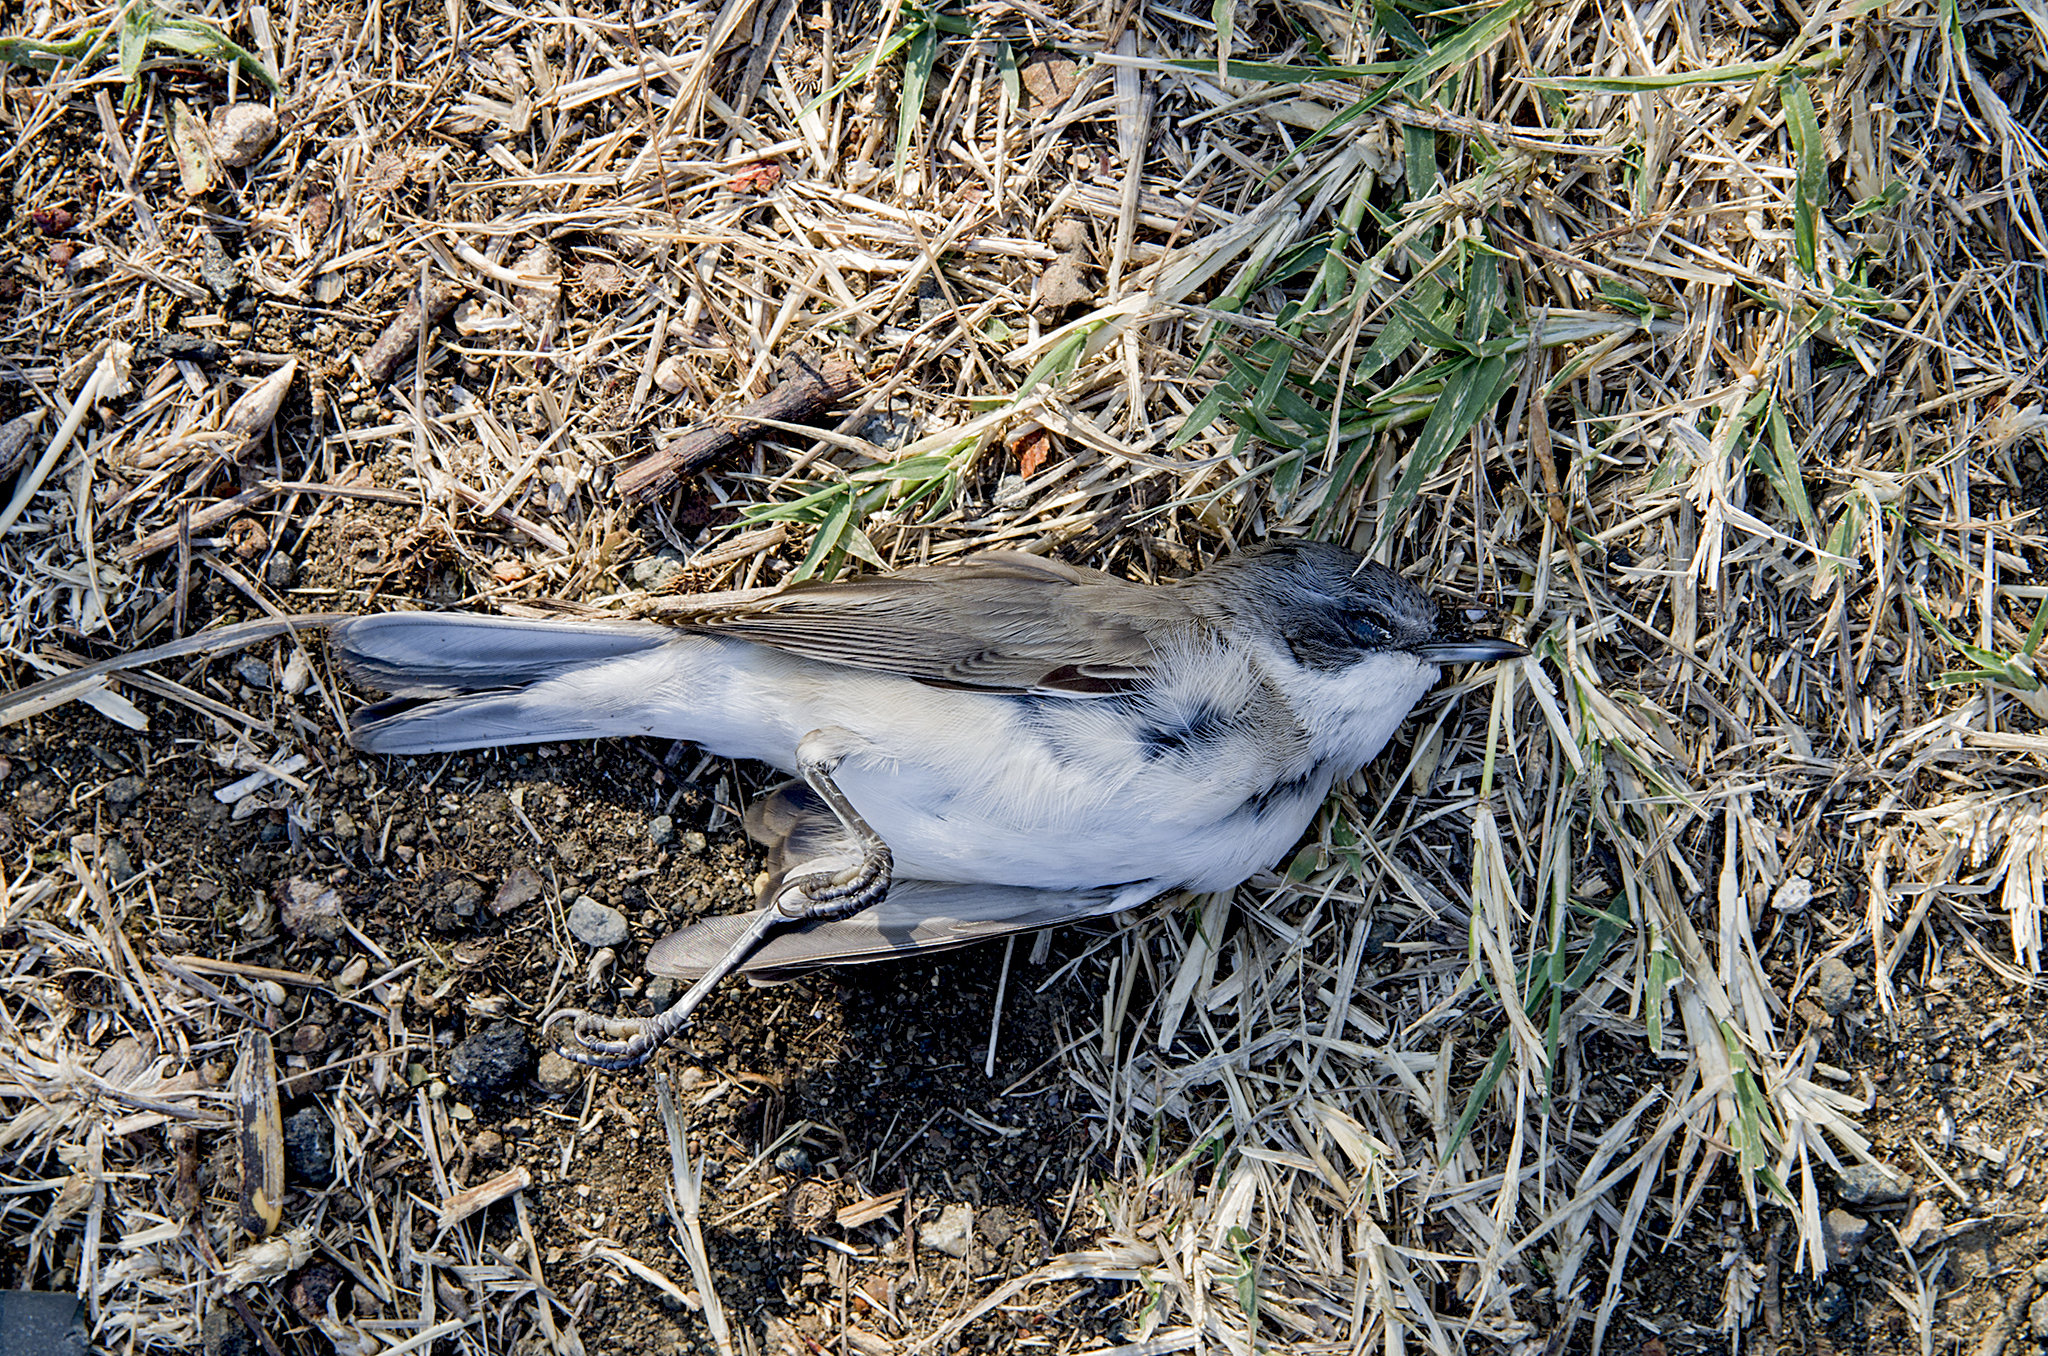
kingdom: Animalia
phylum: Chordata
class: Aves
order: Passeriformes
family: Sylviidae
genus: Sylvia
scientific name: Sylvia curruca
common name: Lesser whitethroat
